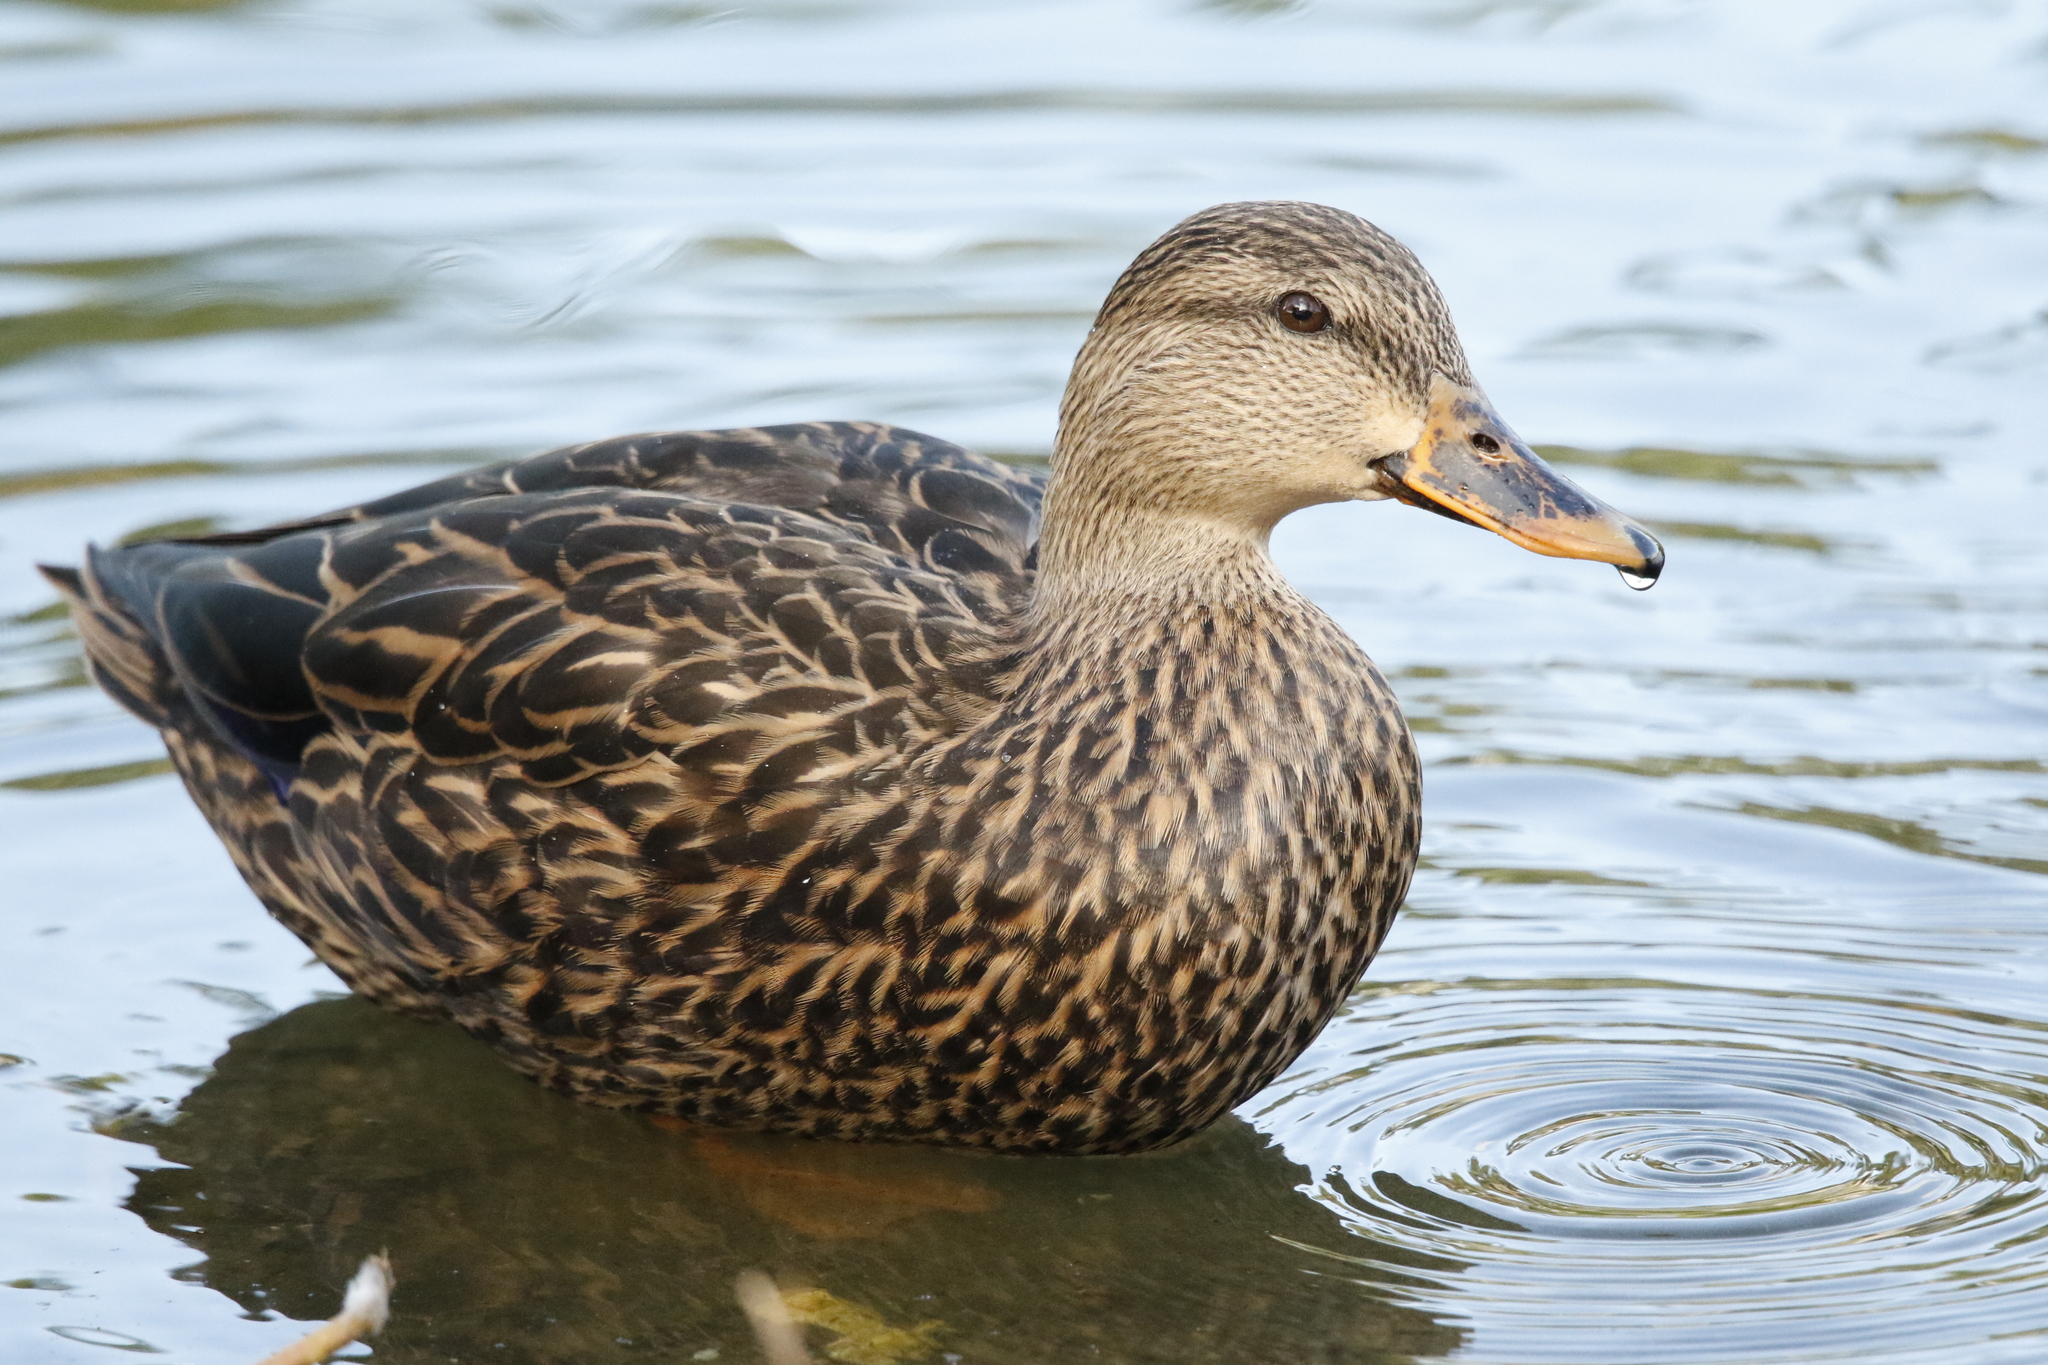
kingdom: Animalia
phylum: Chordata
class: Aves
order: Anseriformes
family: Anatidae
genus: Anas
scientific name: Anas
